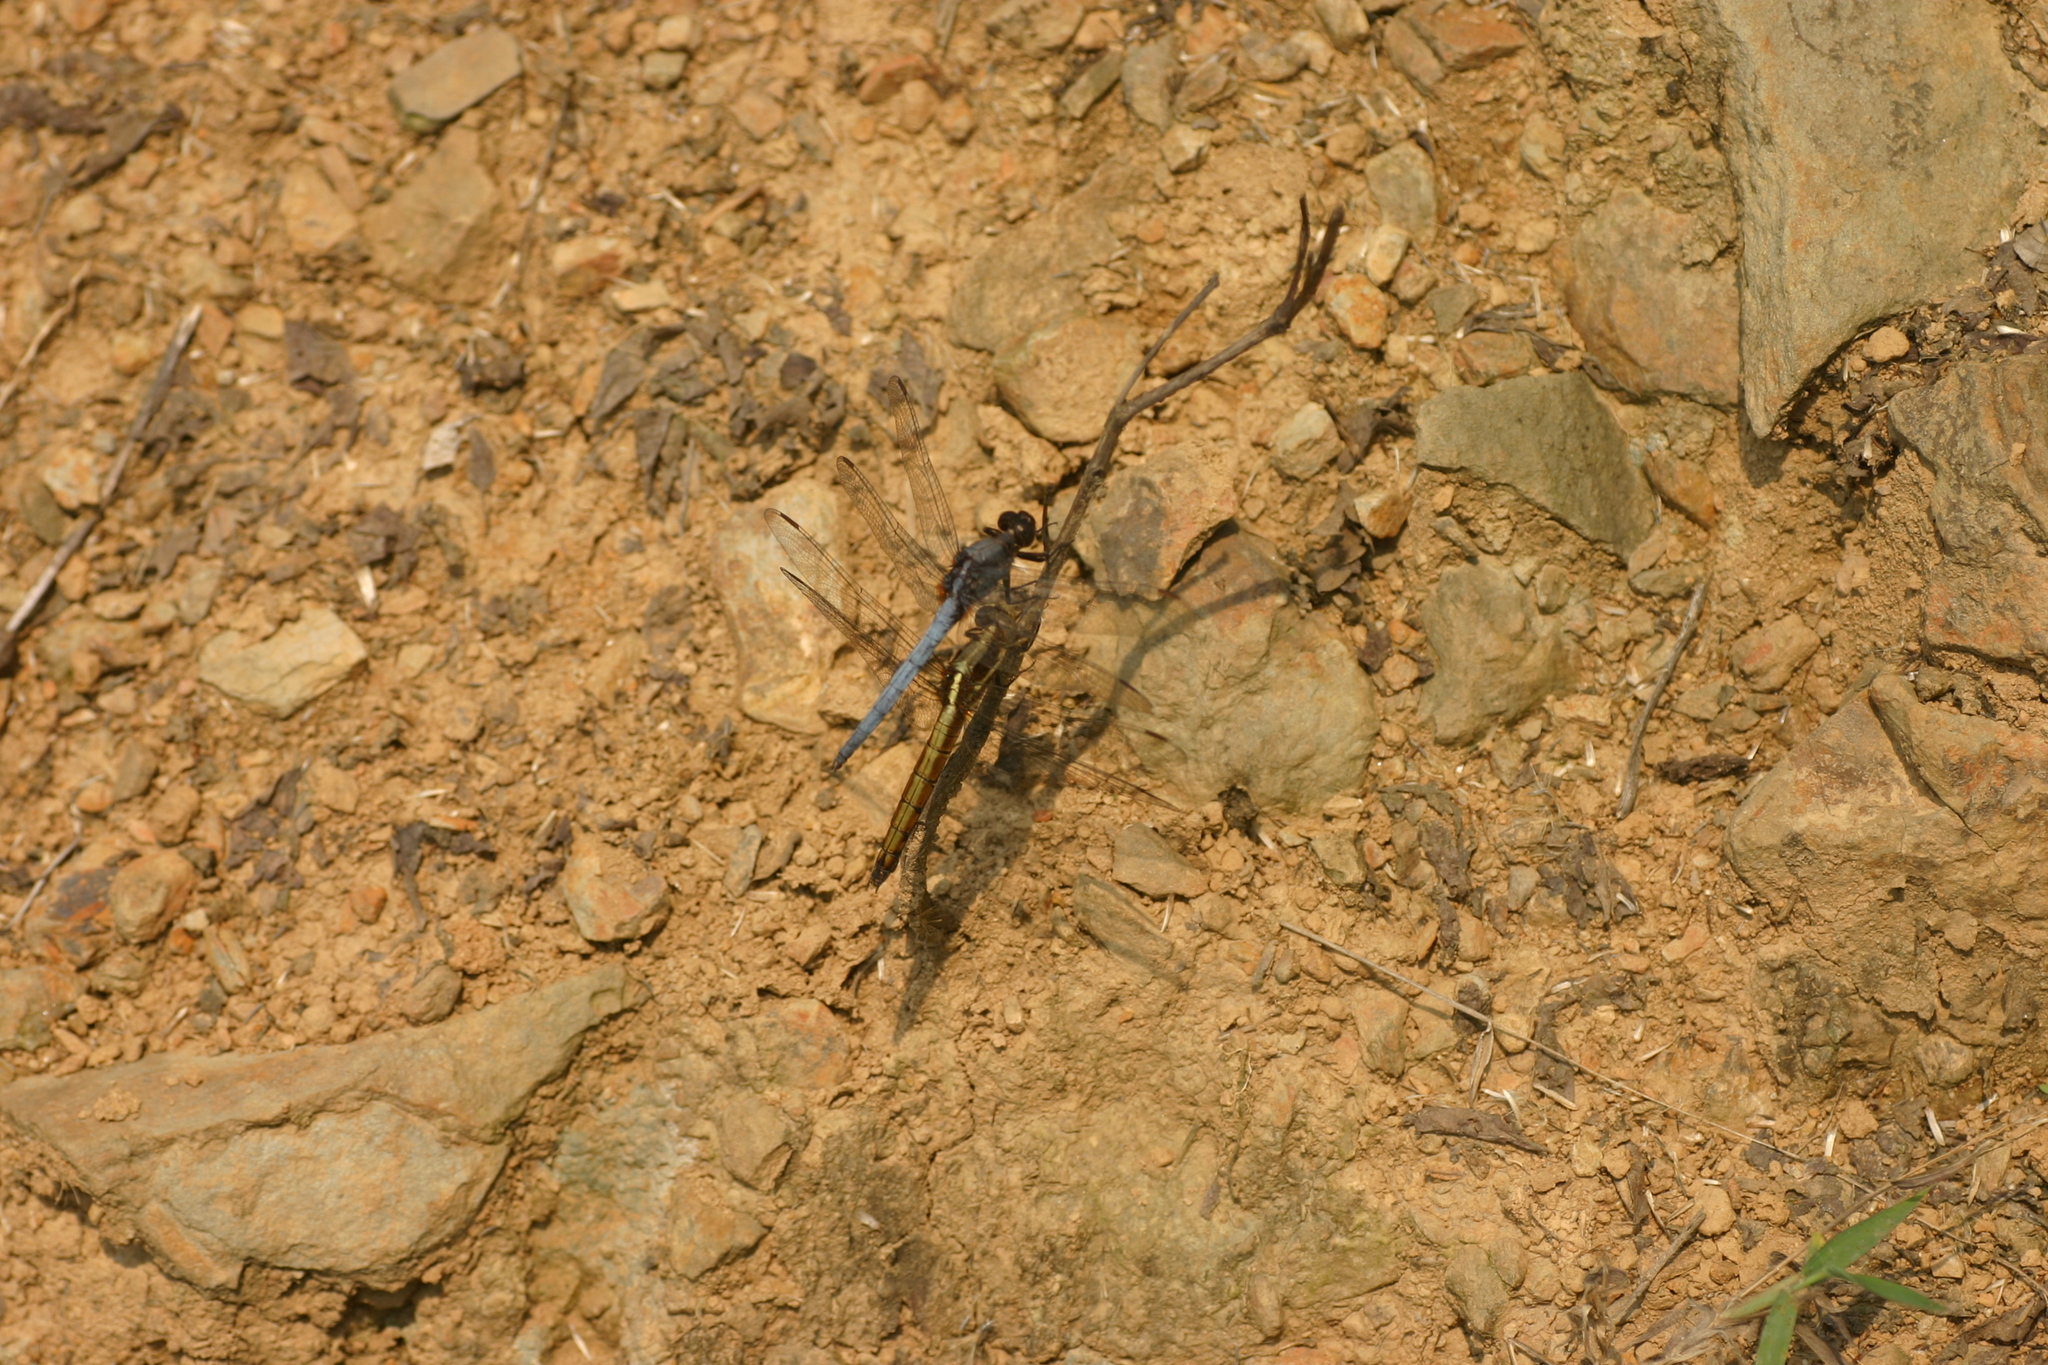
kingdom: Animalia
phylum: Arthropoda
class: Insecta
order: Odonata
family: Libellulidae
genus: Orthetrum
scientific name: Orthetrum glaucum
